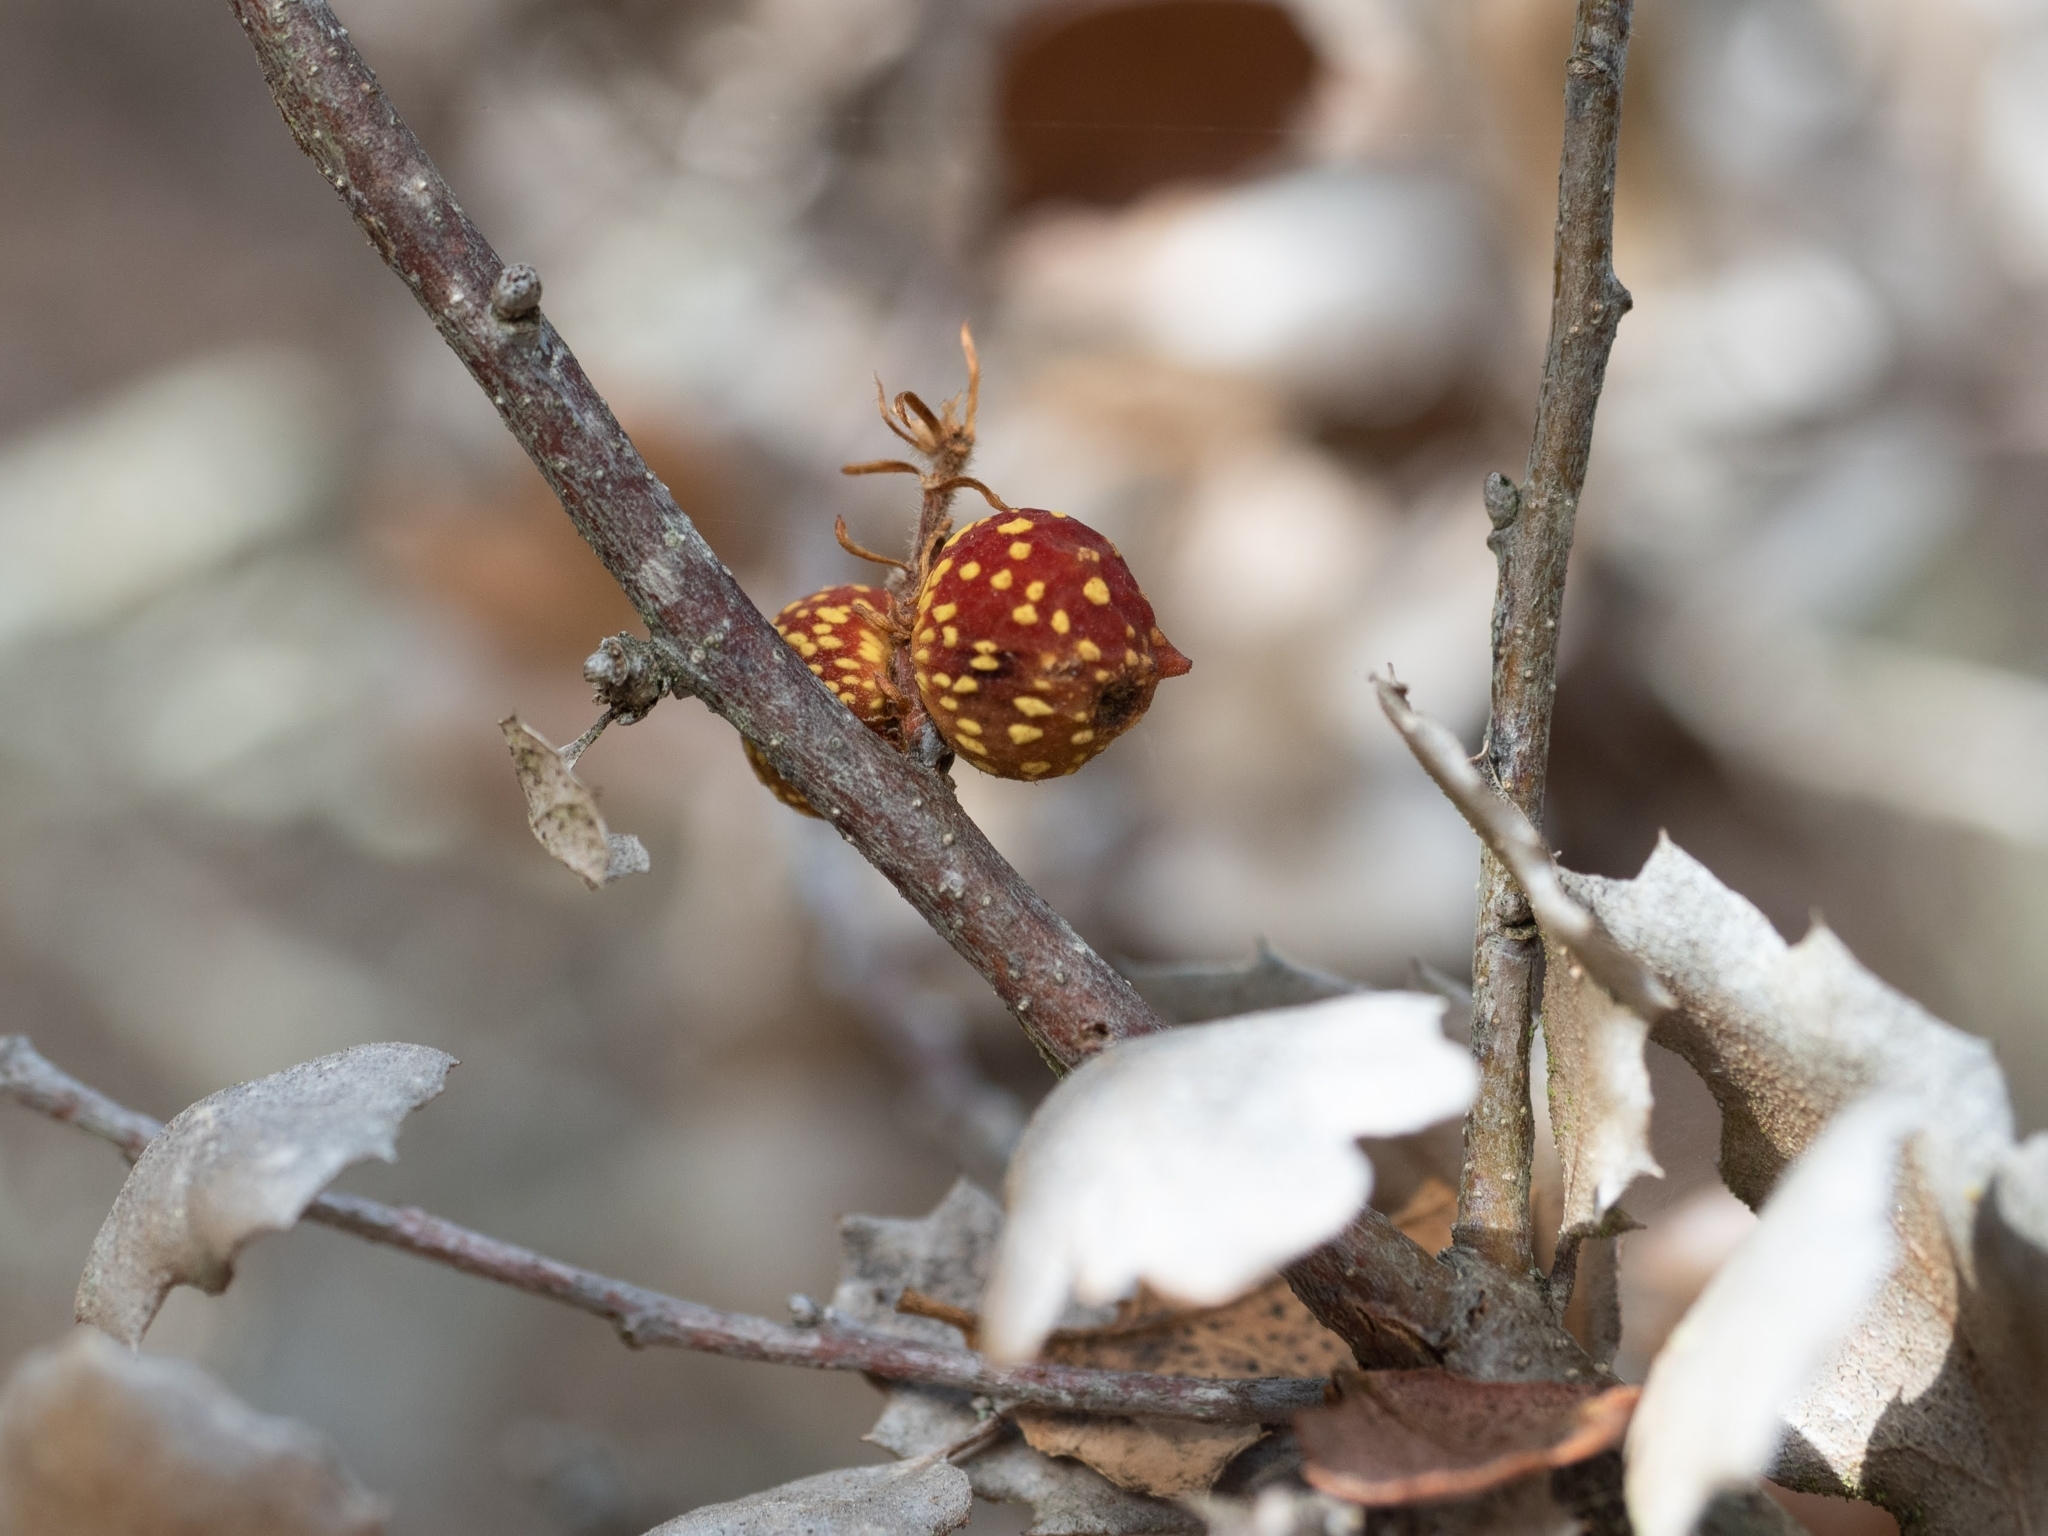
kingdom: Animalia
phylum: Arthropoda
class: Insecta
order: Hymenoptera
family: Cynipidae
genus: Burnettweldia
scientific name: Burnettweldia
